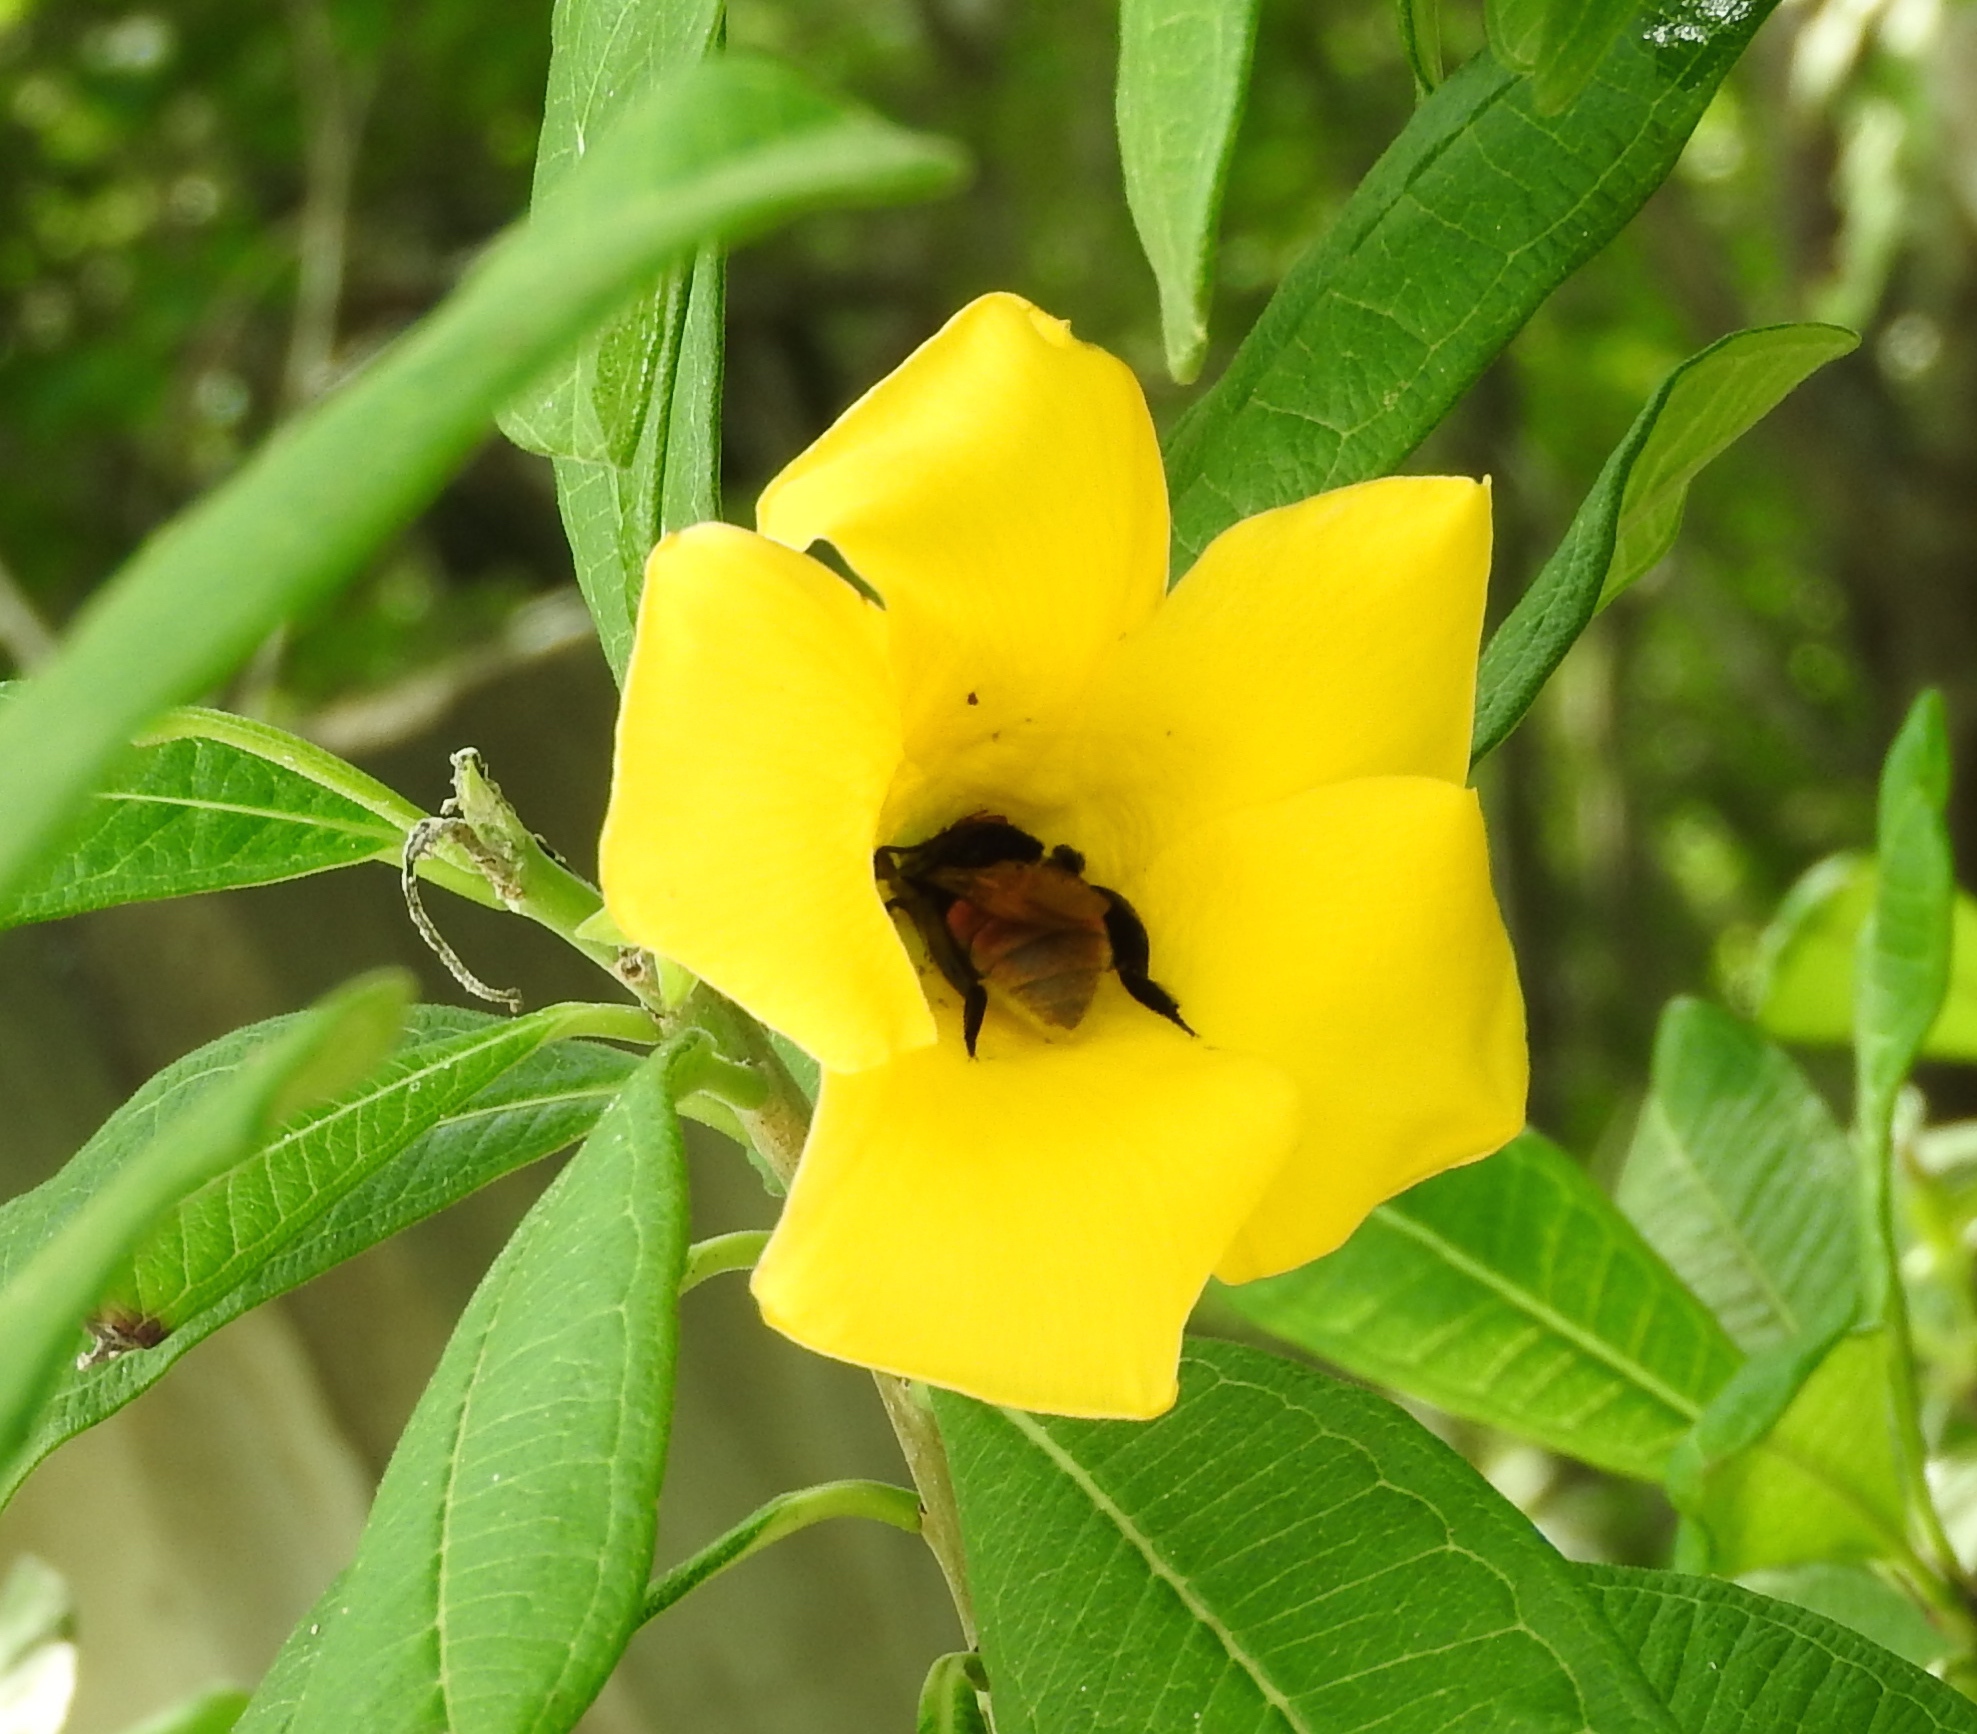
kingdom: Animalia
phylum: Arthropoda
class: Insecta
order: Hymenoptera
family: Apidae
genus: Eulaema
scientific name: Eulaema polychroma
